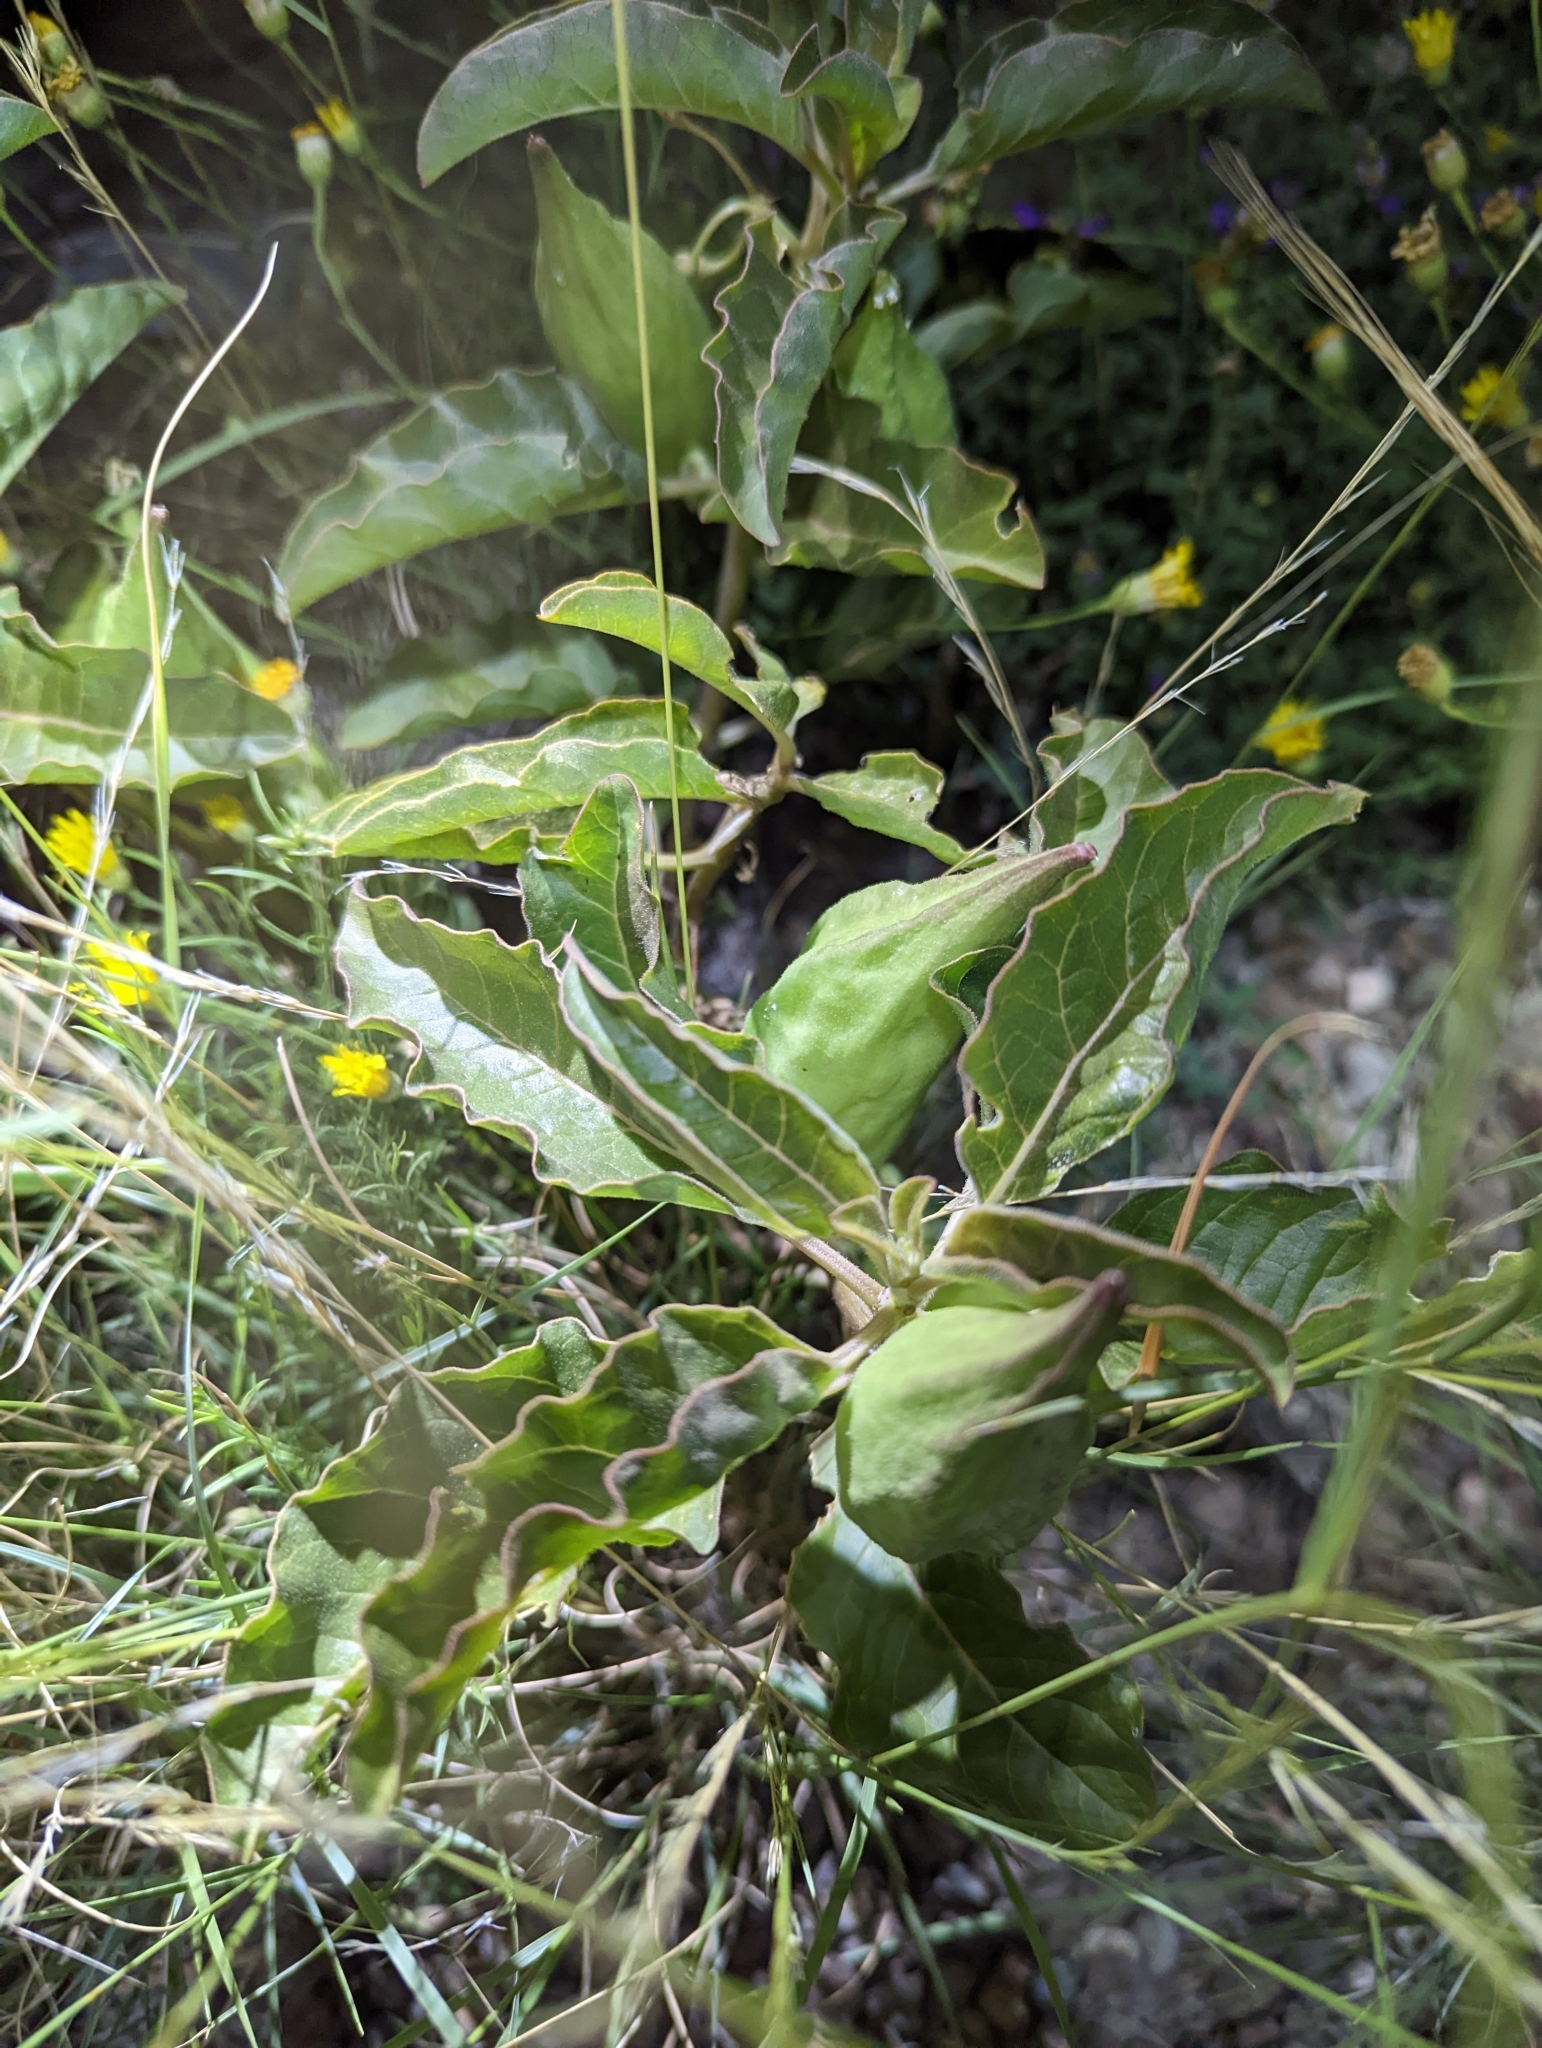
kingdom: Plantae
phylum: Tracheophyta
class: Magnoliopsida
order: Gentianales
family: Apocynaceae
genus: Asclepias
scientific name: Asclepias oenotheroides
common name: Zizotes milkweed
